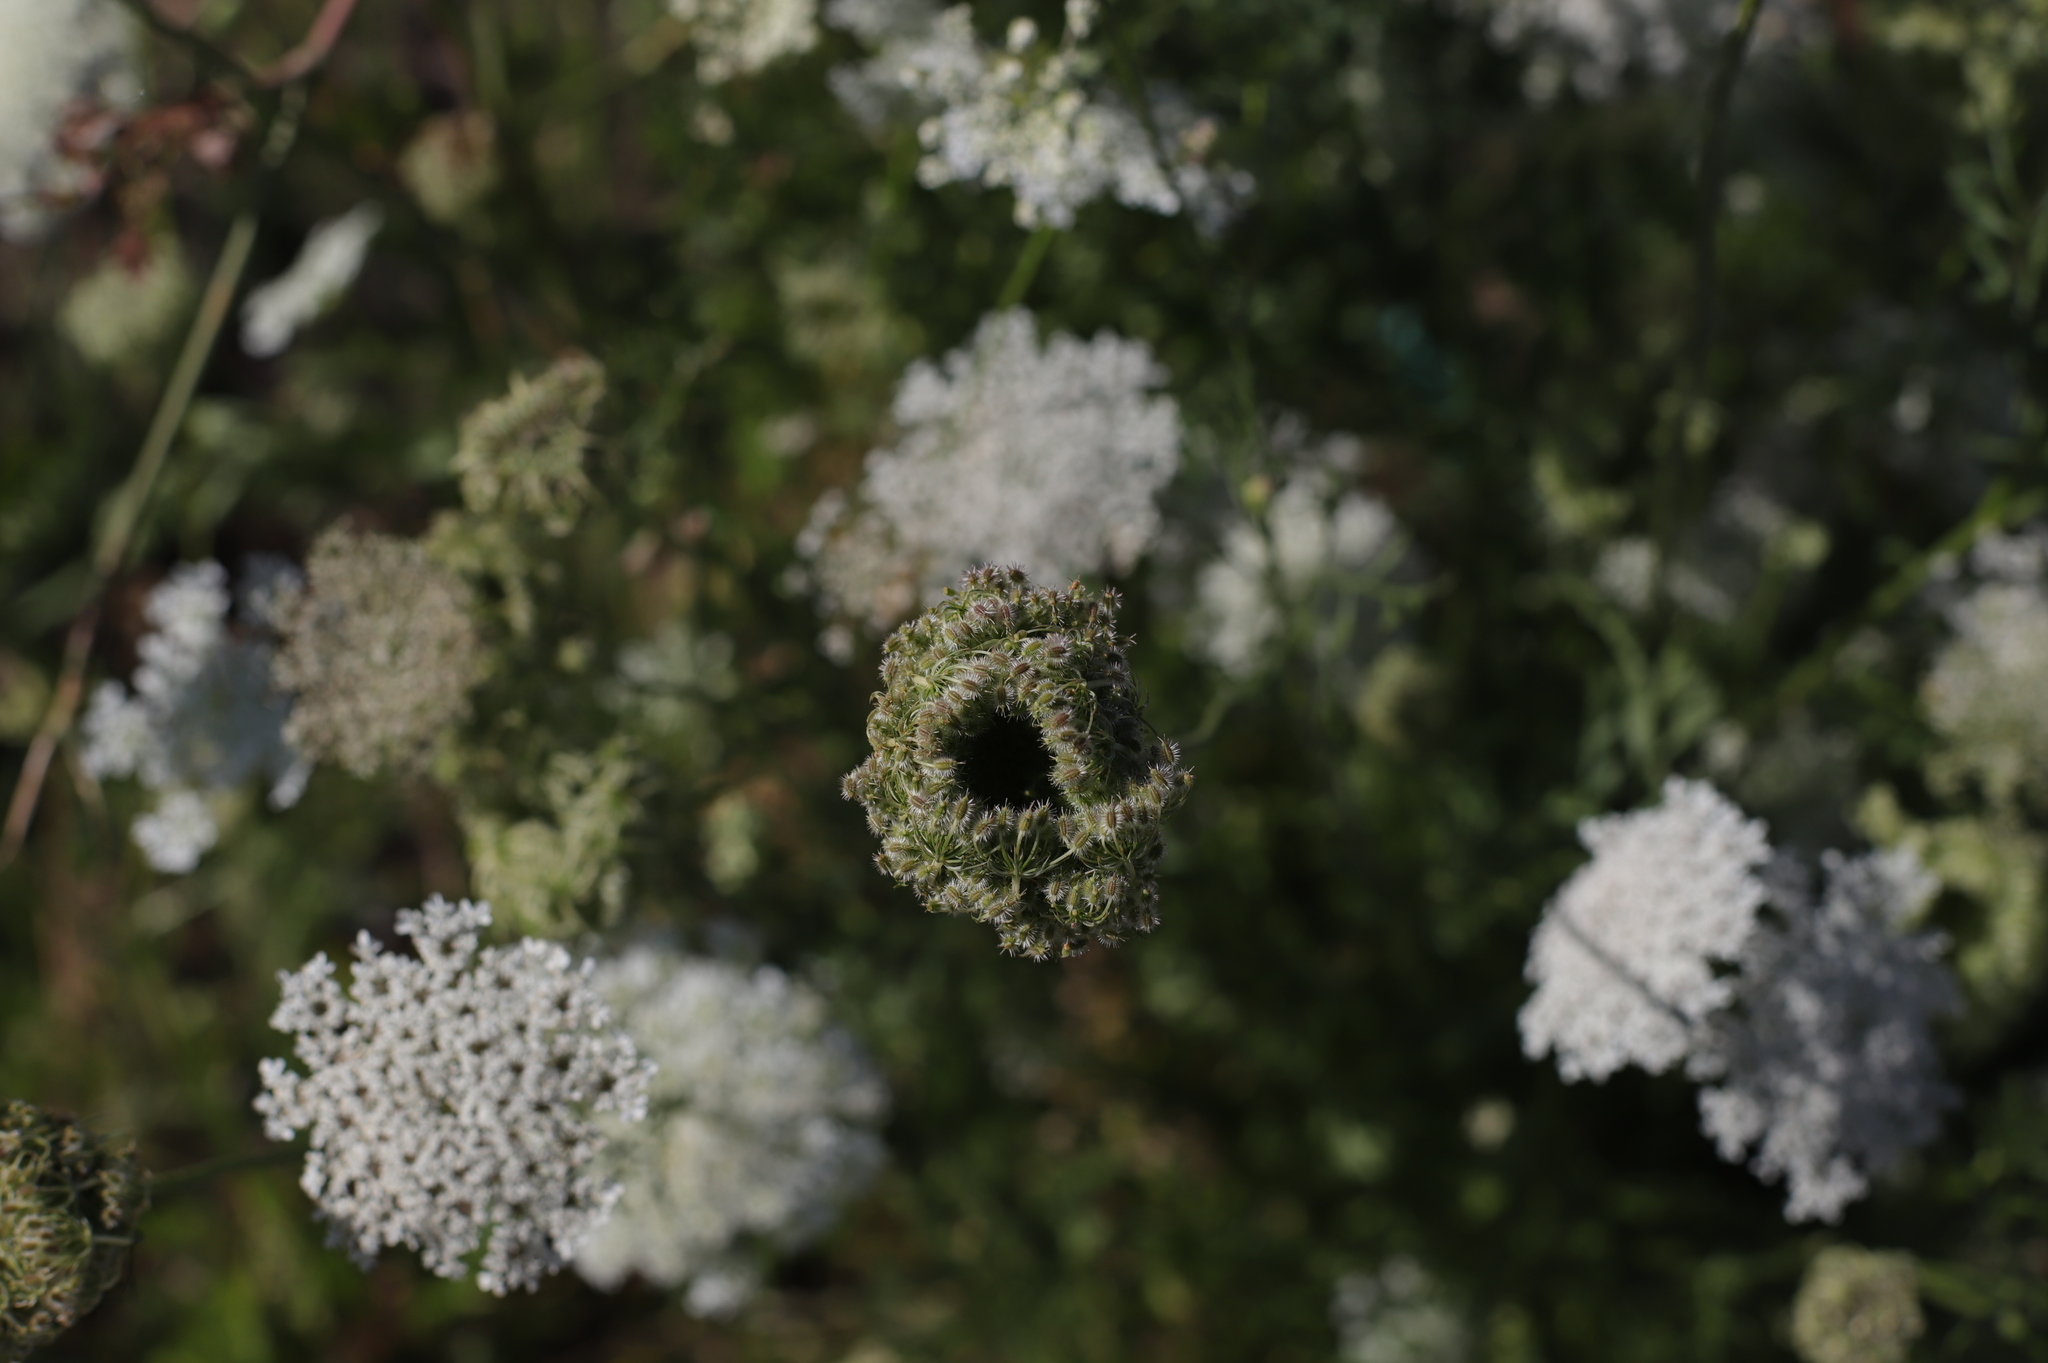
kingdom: Plantae
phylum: Tracheophyta
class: Magnoliopsida
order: Apiales
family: Apiaceae
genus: Daucus
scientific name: Daucus carota
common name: Wild carrot
